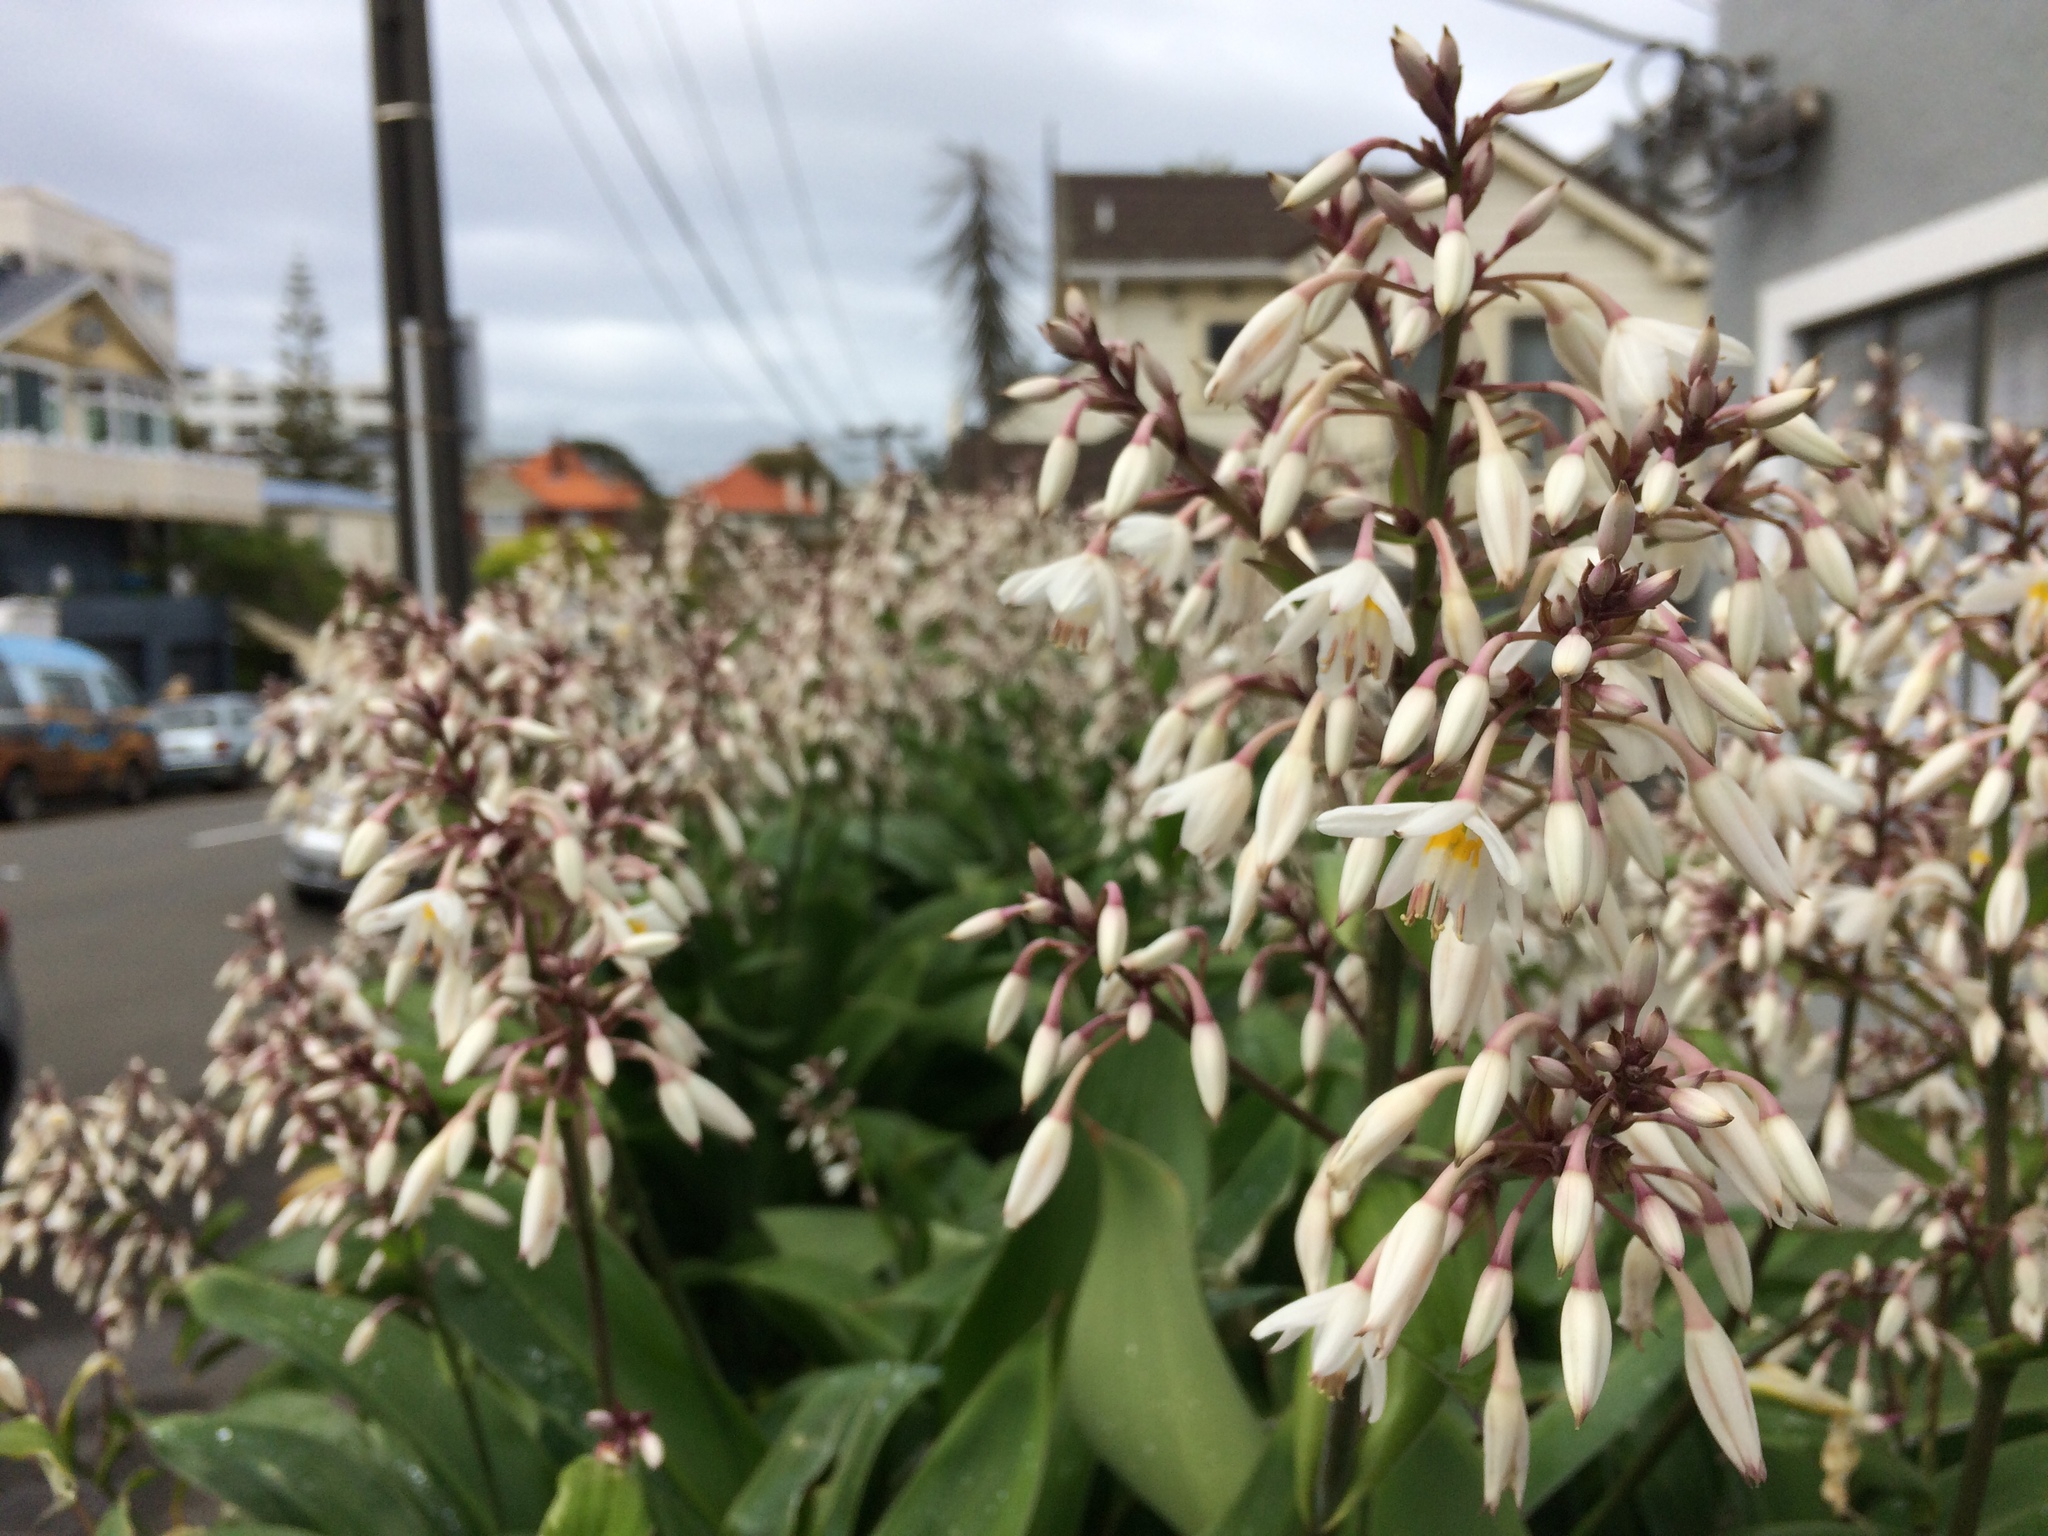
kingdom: Plantae
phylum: Tracheophyta
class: Liliopsida
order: Asparagales
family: Asparagaceae
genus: Arthropodium
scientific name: Arthropodium cirratum
